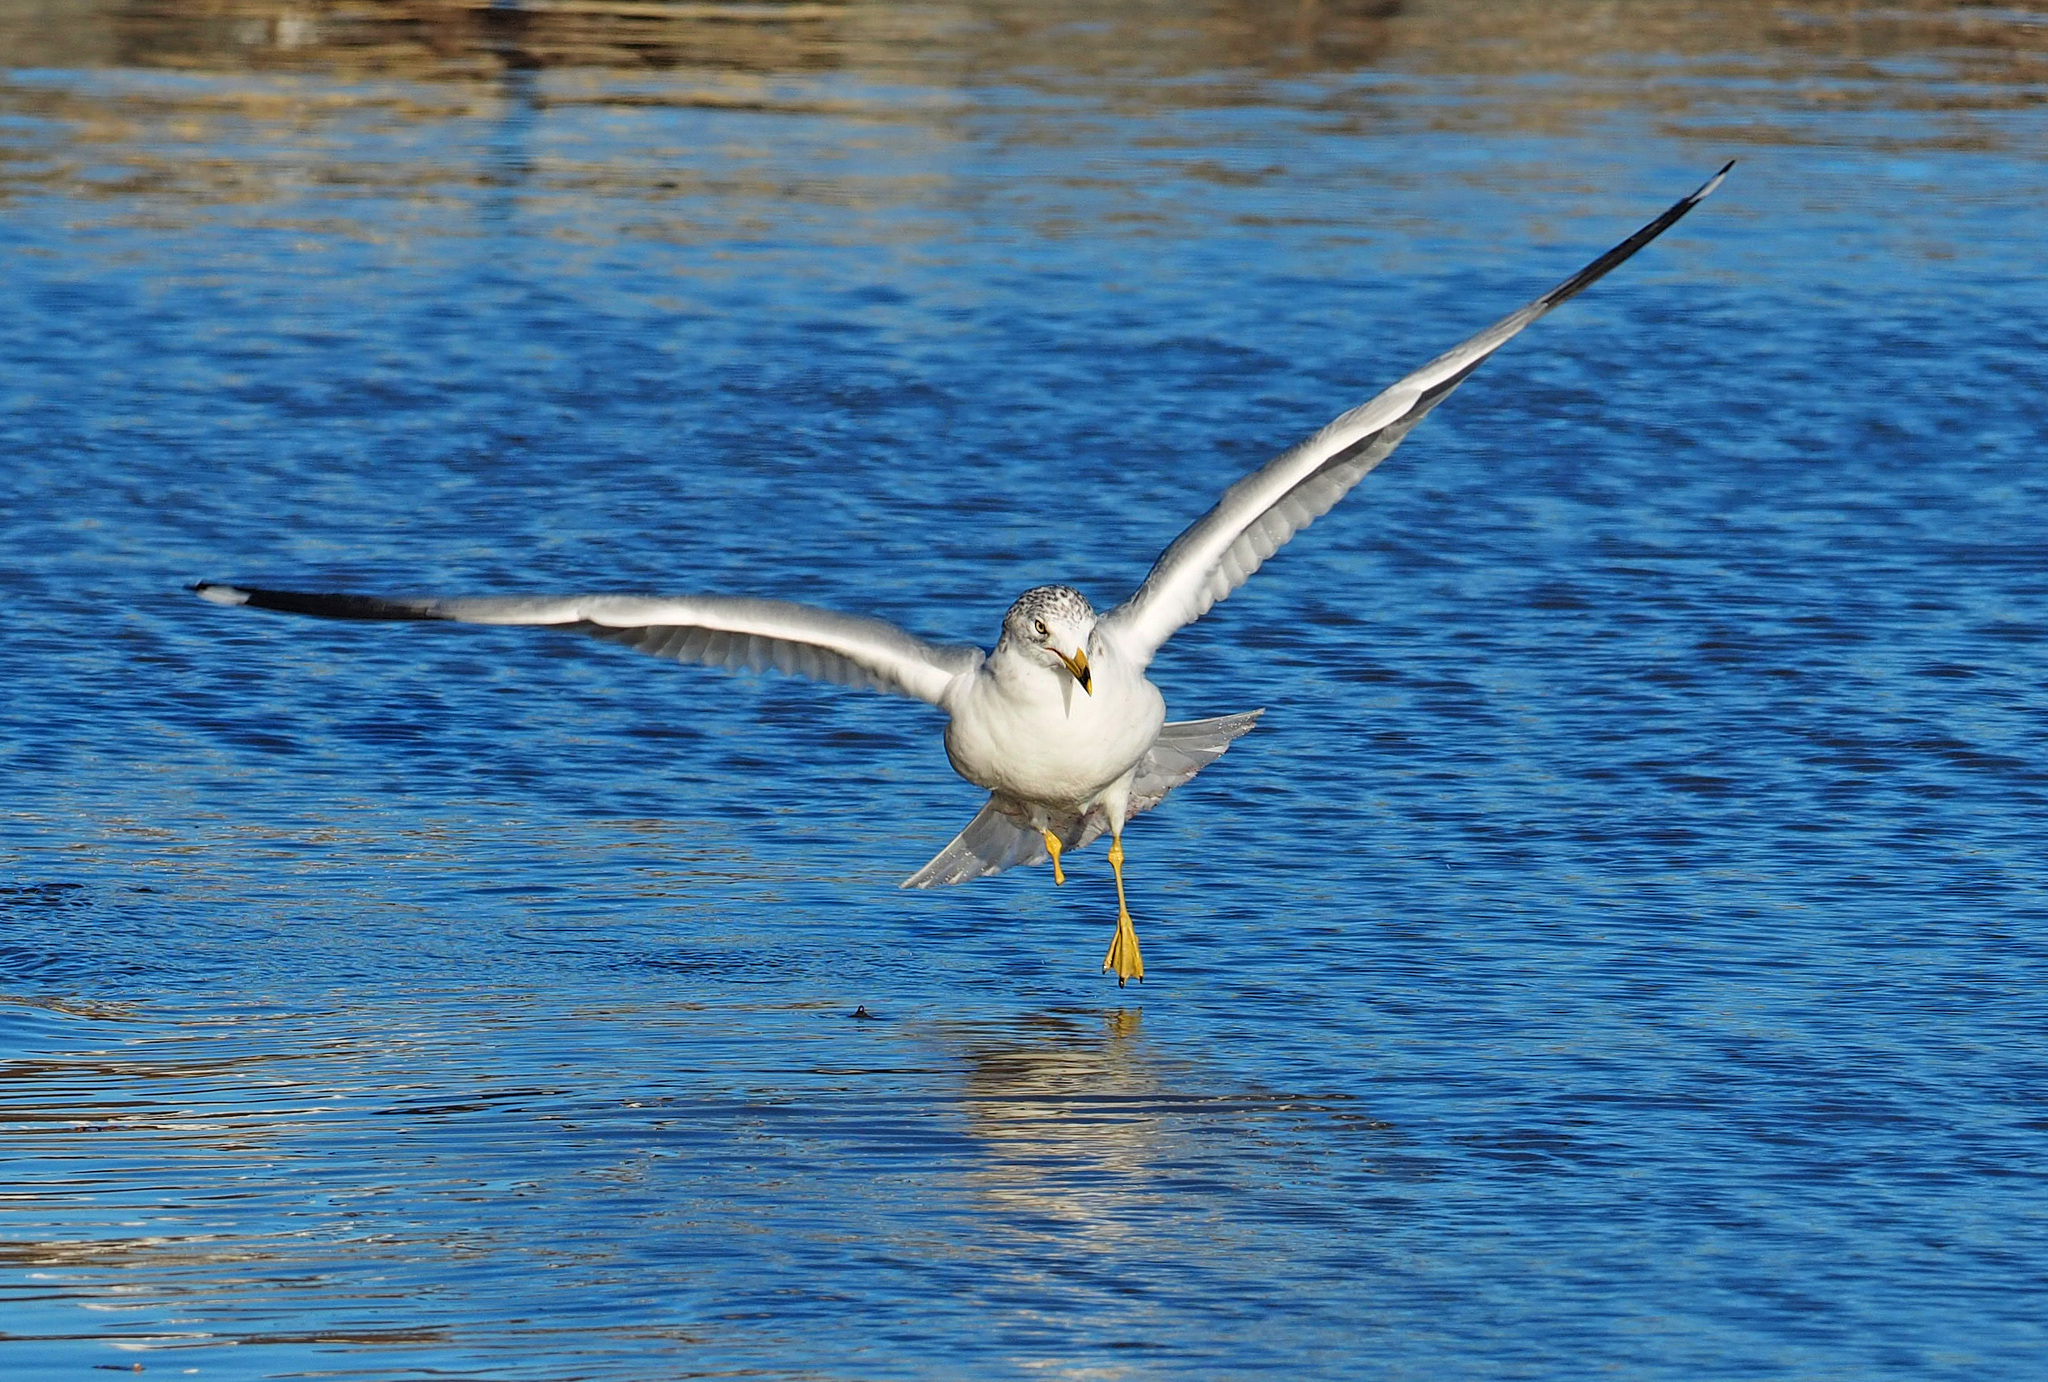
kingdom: Animalia
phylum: Chordata
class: Aves
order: Charadriiformes
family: Laridae
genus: Larus
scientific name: Larus delawarensis
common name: Ring-billed gull
